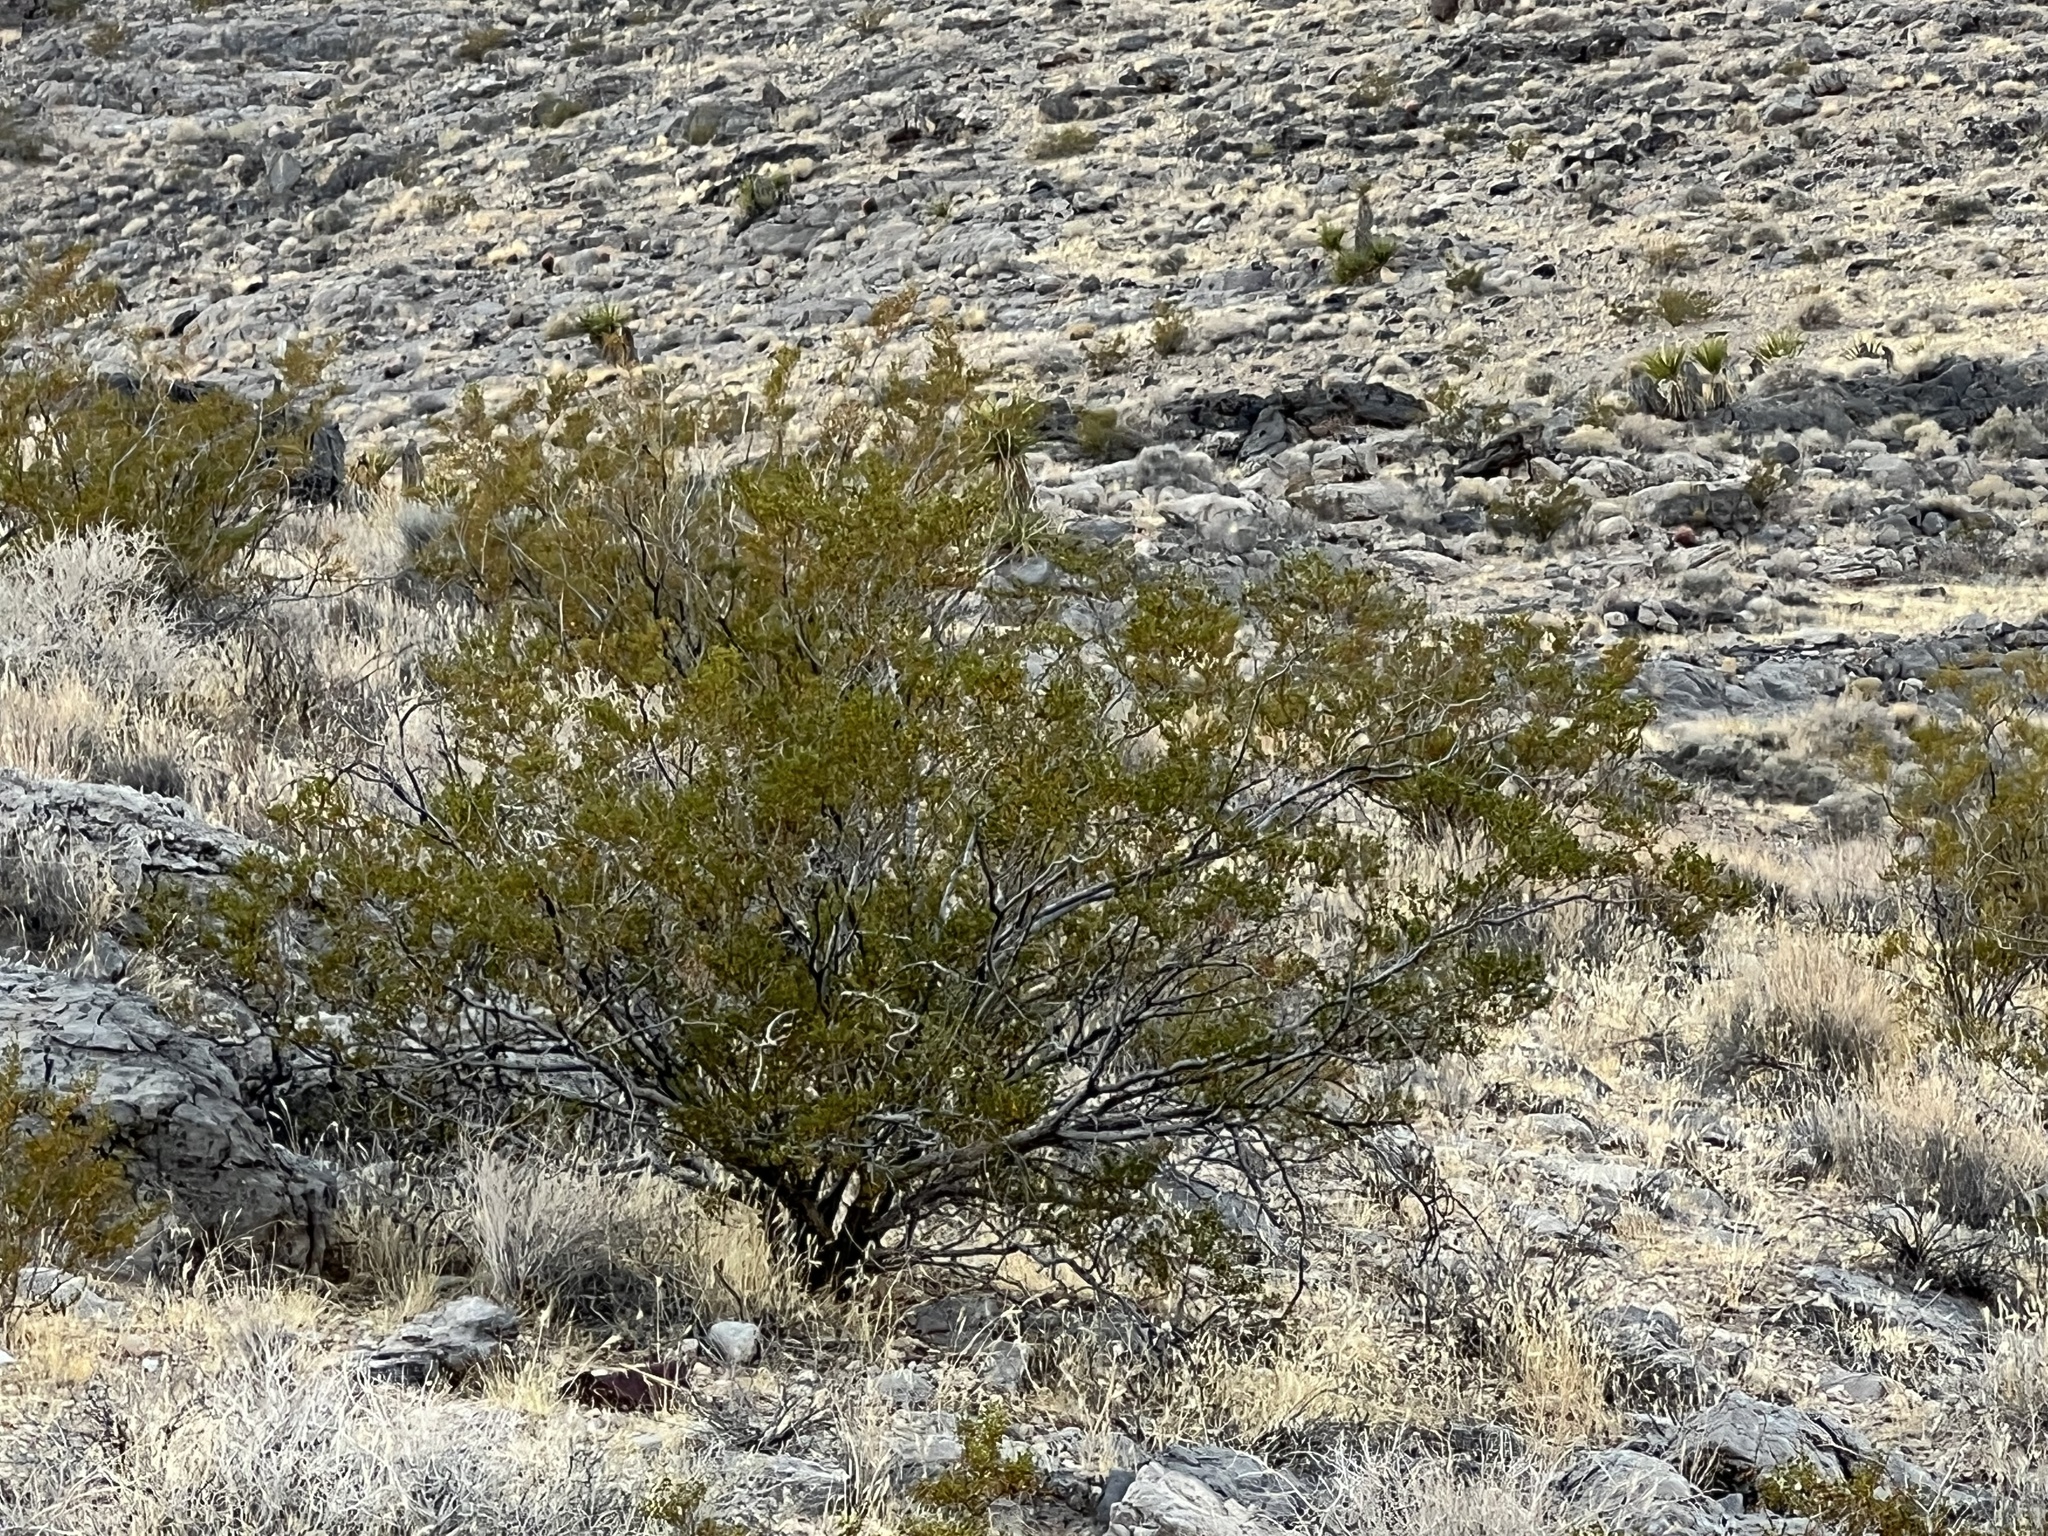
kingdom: Plantae
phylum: Tracheophyta
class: Magnoliopsida
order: Zygophyllales
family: Zygophyllaceae
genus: Larrea
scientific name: Larrea tridentata
